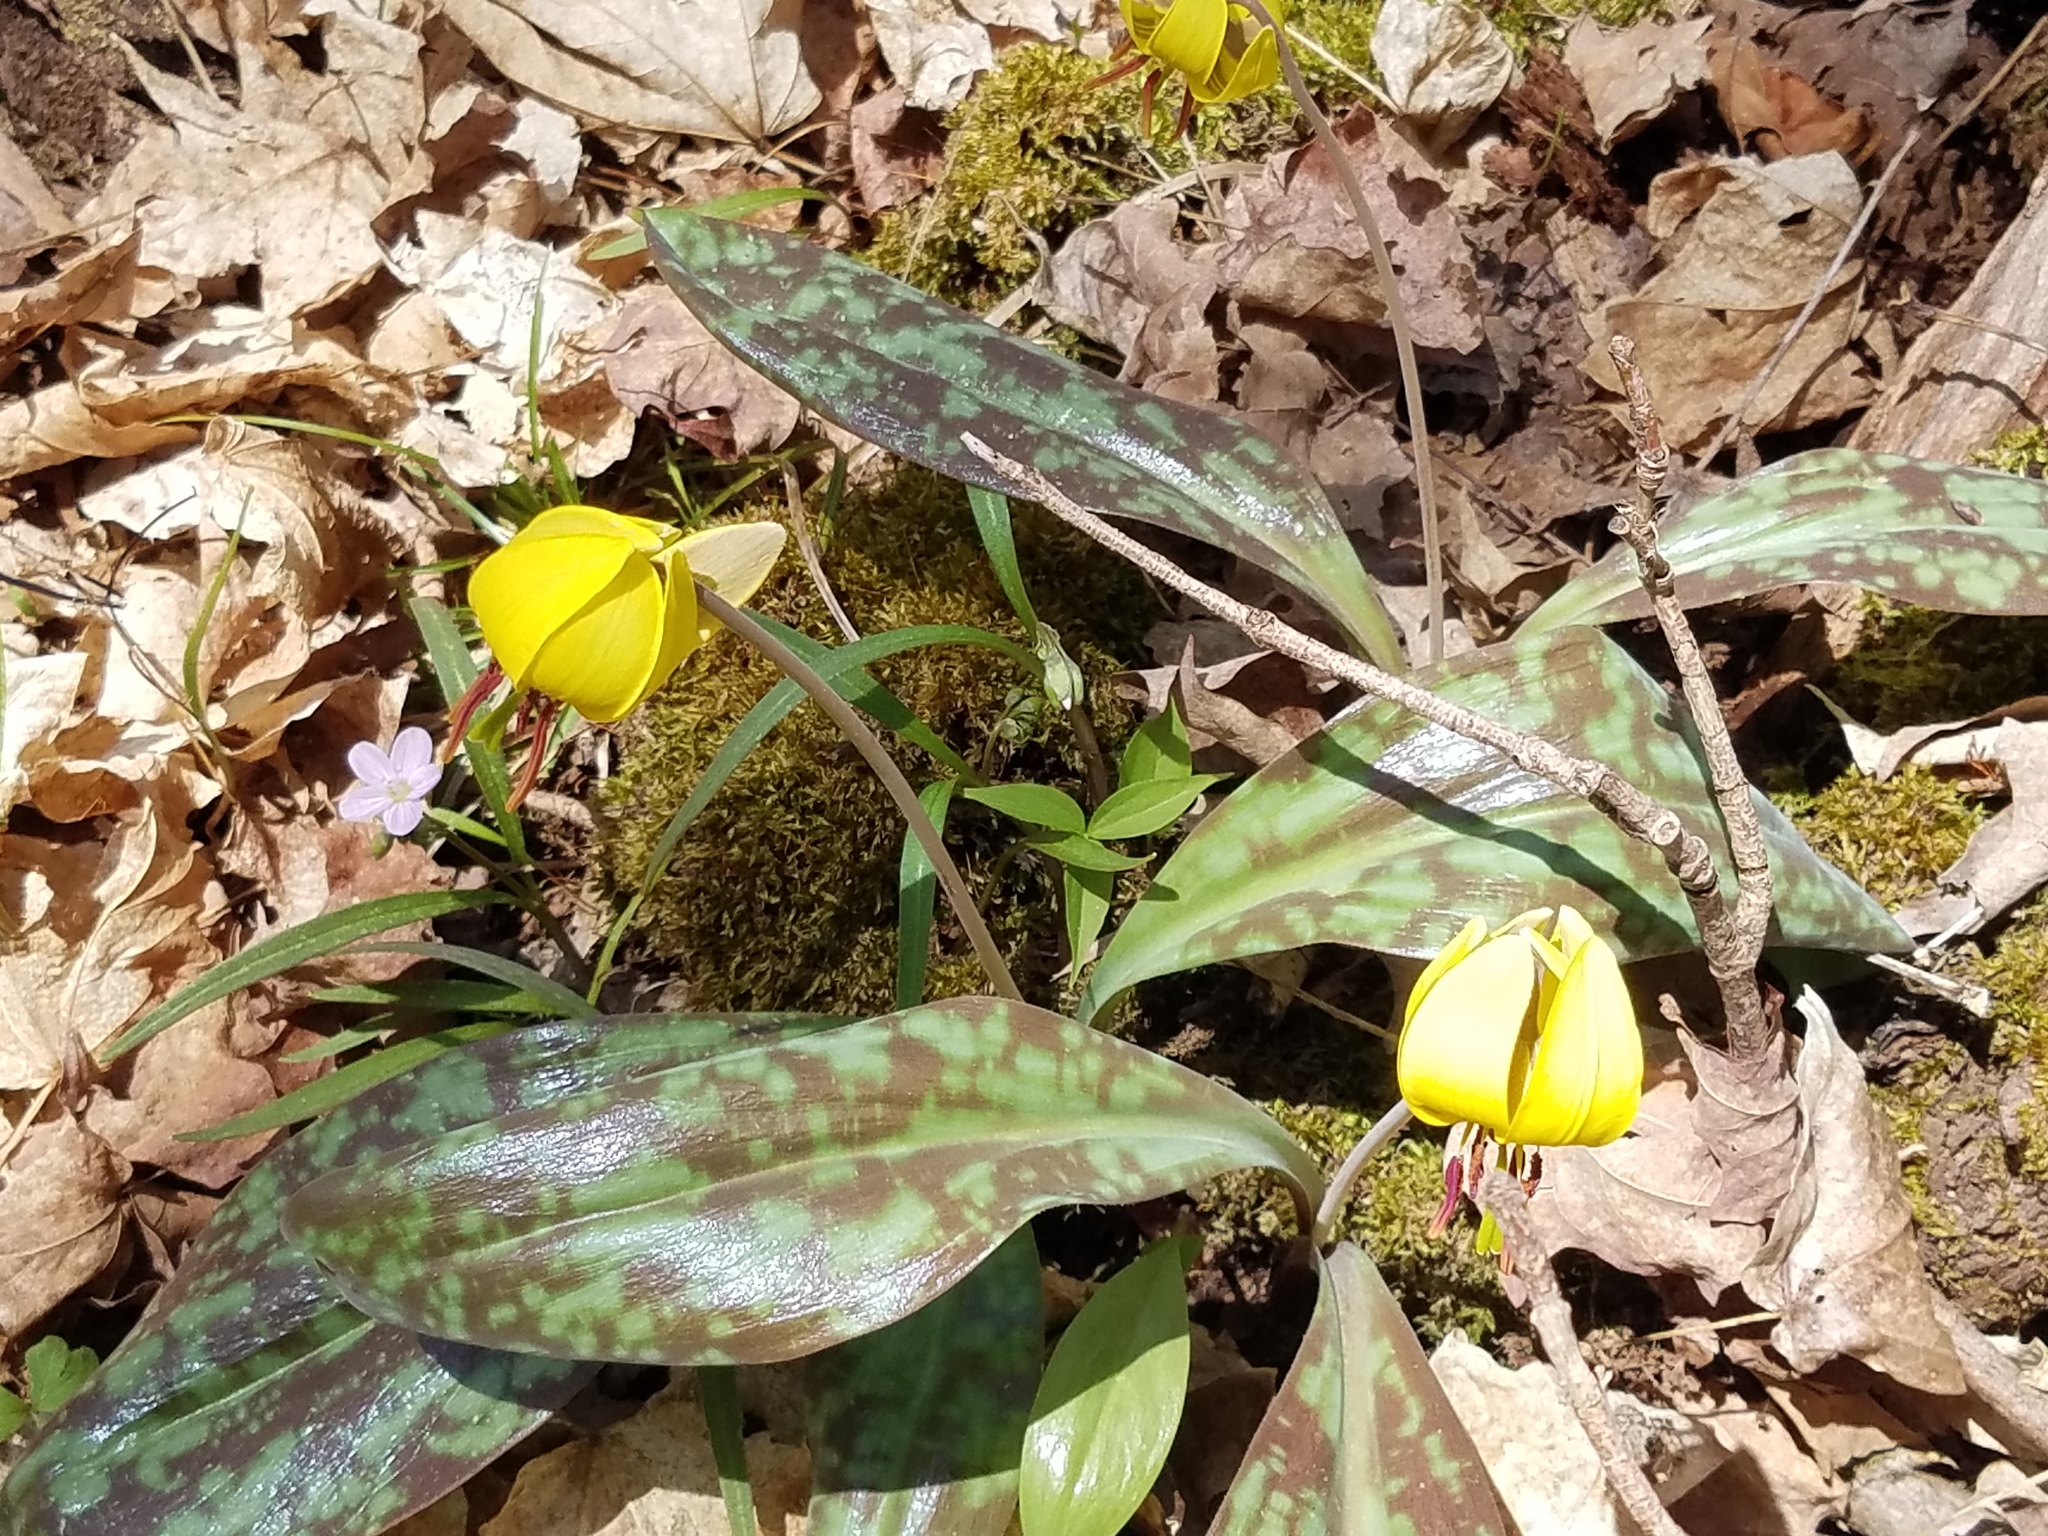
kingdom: Plantae
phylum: Tracheophyta
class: Liliopsida
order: Liliales
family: Liliaceae
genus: Erythronium
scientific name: Erythronium americanum
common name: Yellow adder's-tongue
